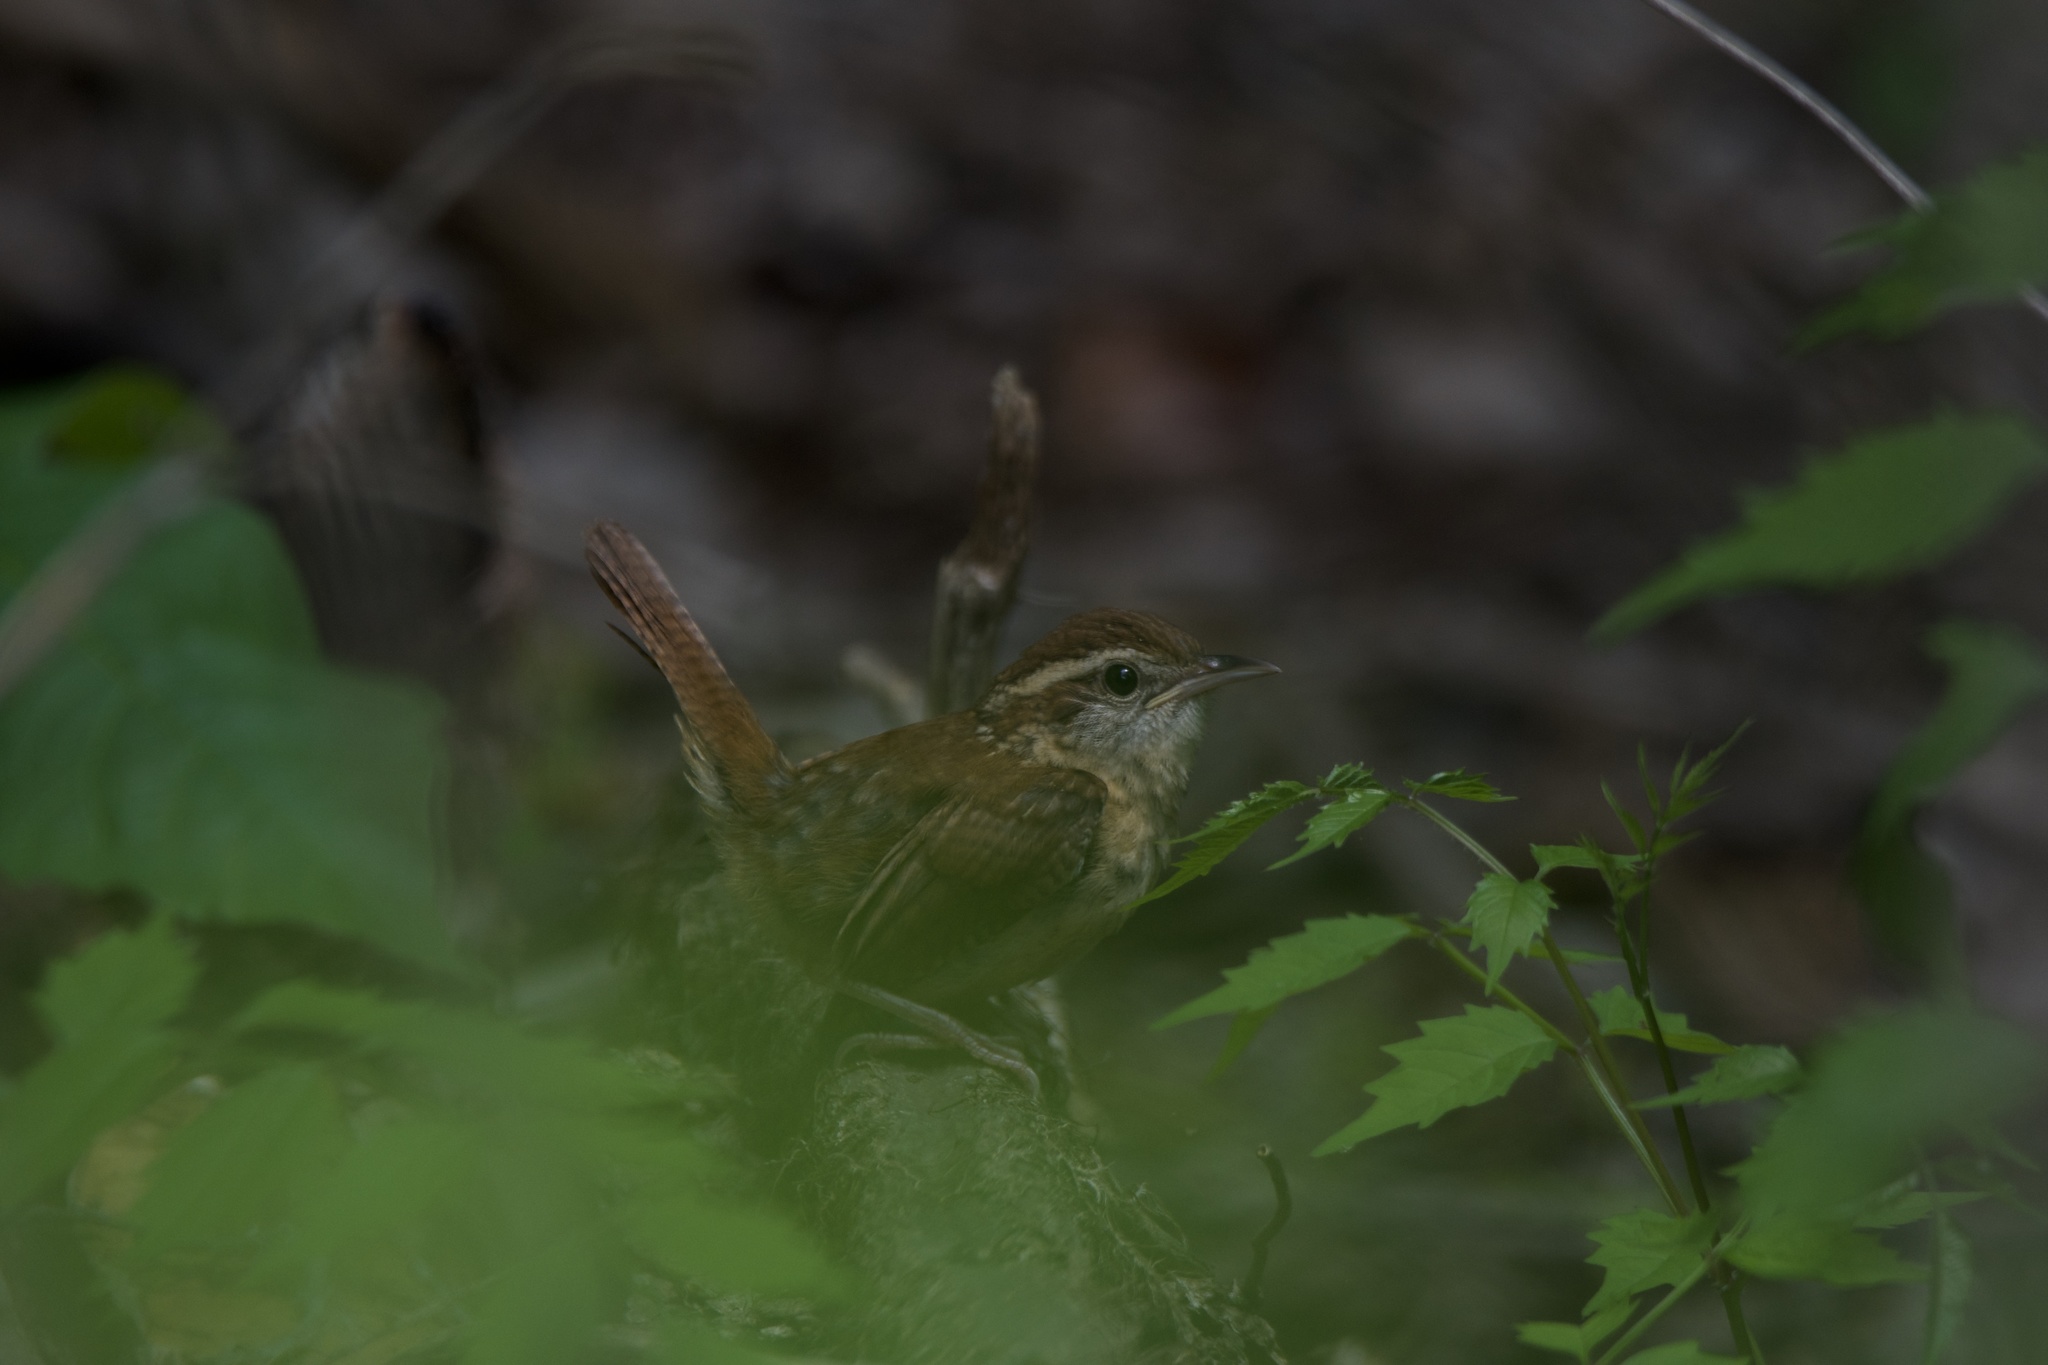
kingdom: Animalia
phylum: Chordata
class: Aves
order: Passeriformes
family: Troglodytidae
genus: Thryothorus
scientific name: Thryothorus ludovicianus
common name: Carolina wren
